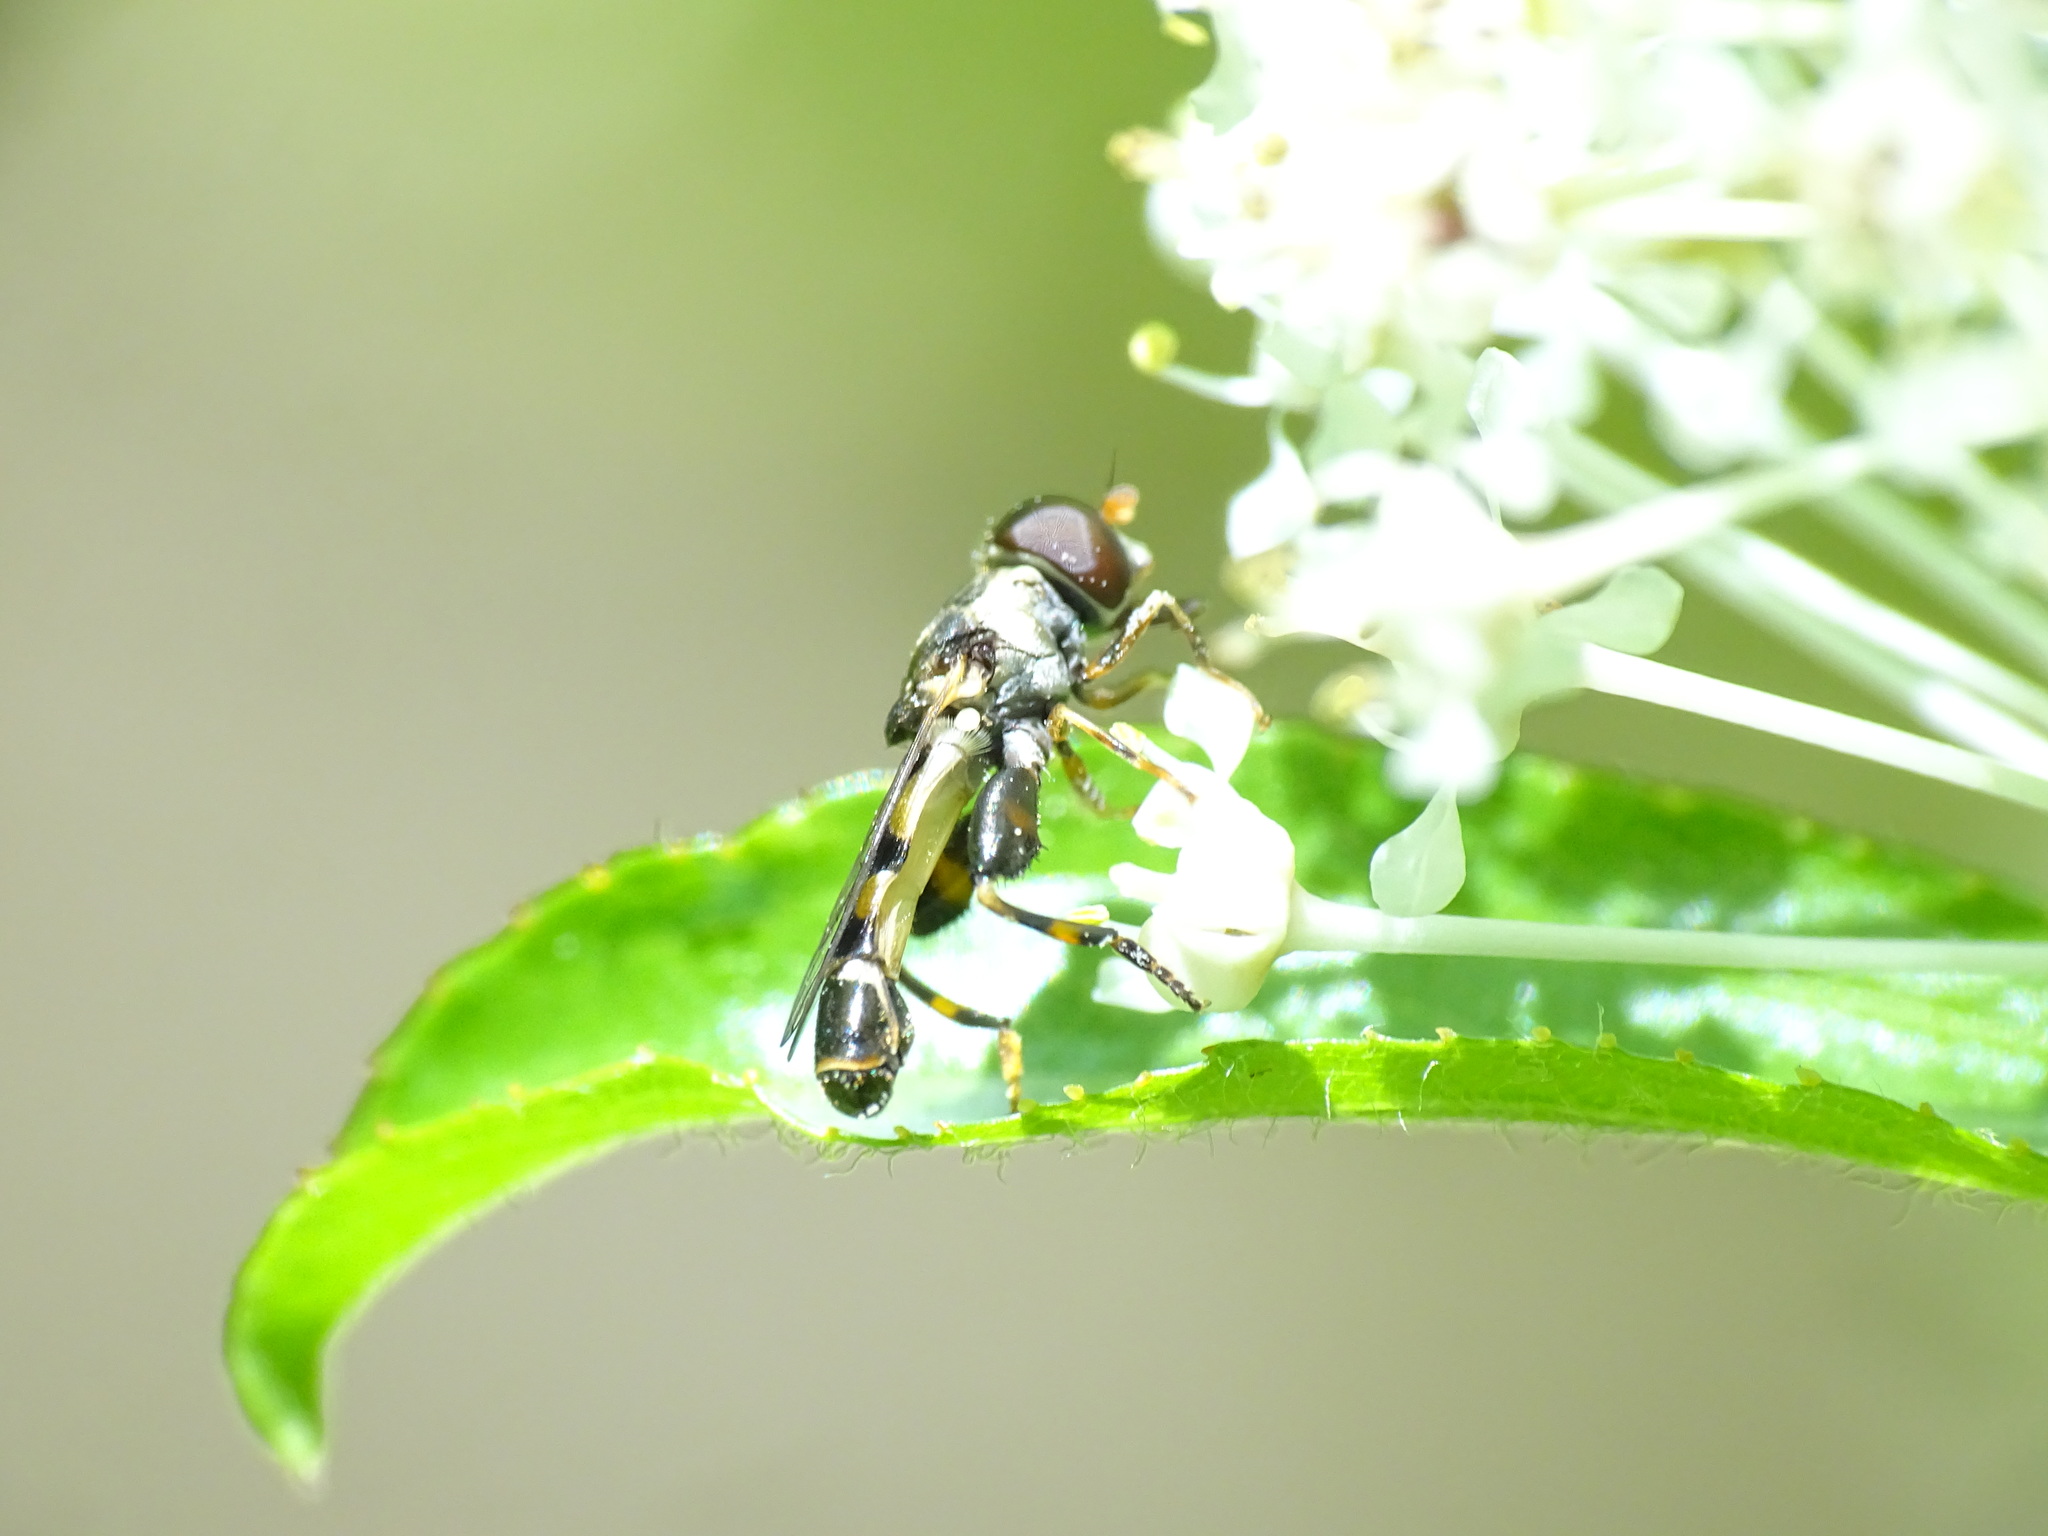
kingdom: Animalia
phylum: Arthropoda
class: Insecta
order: Diptera
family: Syrphidae
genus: Syritta
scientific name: Syritta pipiens
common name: Hover fly
